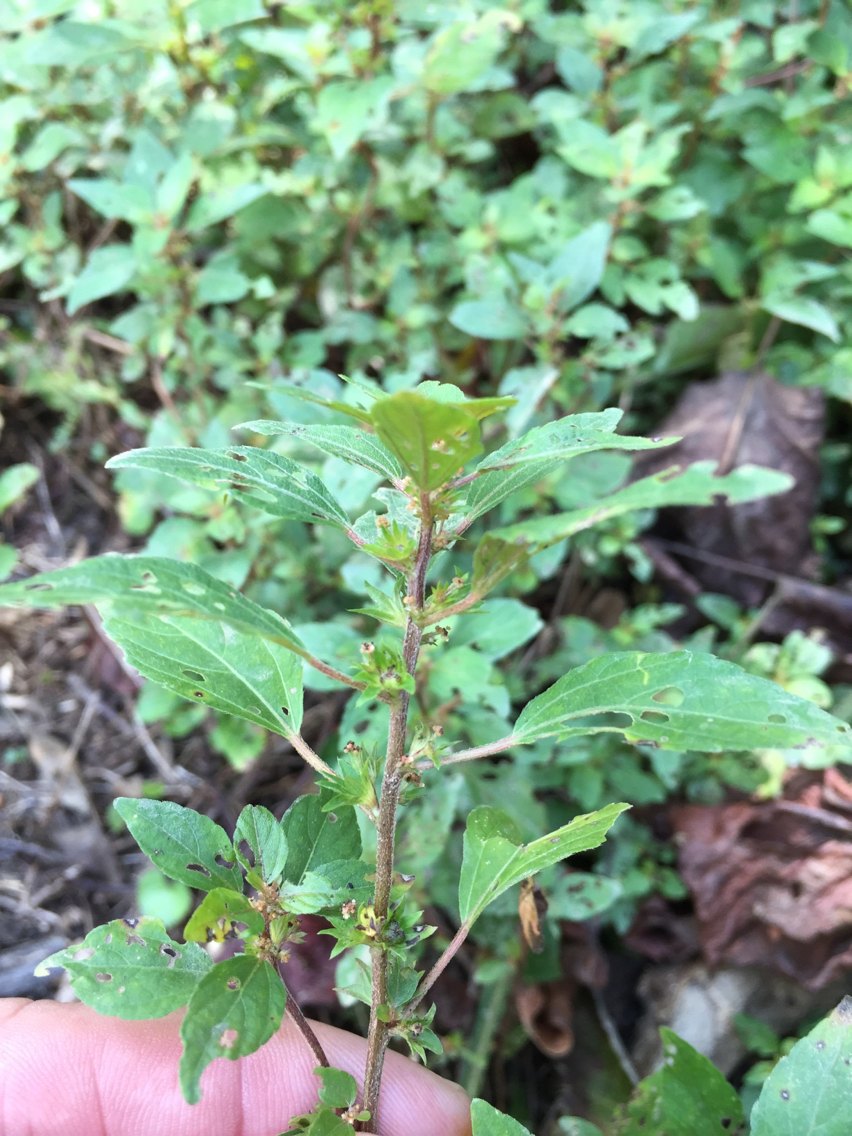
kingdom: Plantae
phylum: Tracheophyta
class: Magnoliopsida
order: Malpighiales
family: Euphorbiaceae
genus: Acalypha
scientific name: Acalypha virginica
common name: Virginia copperleaf
